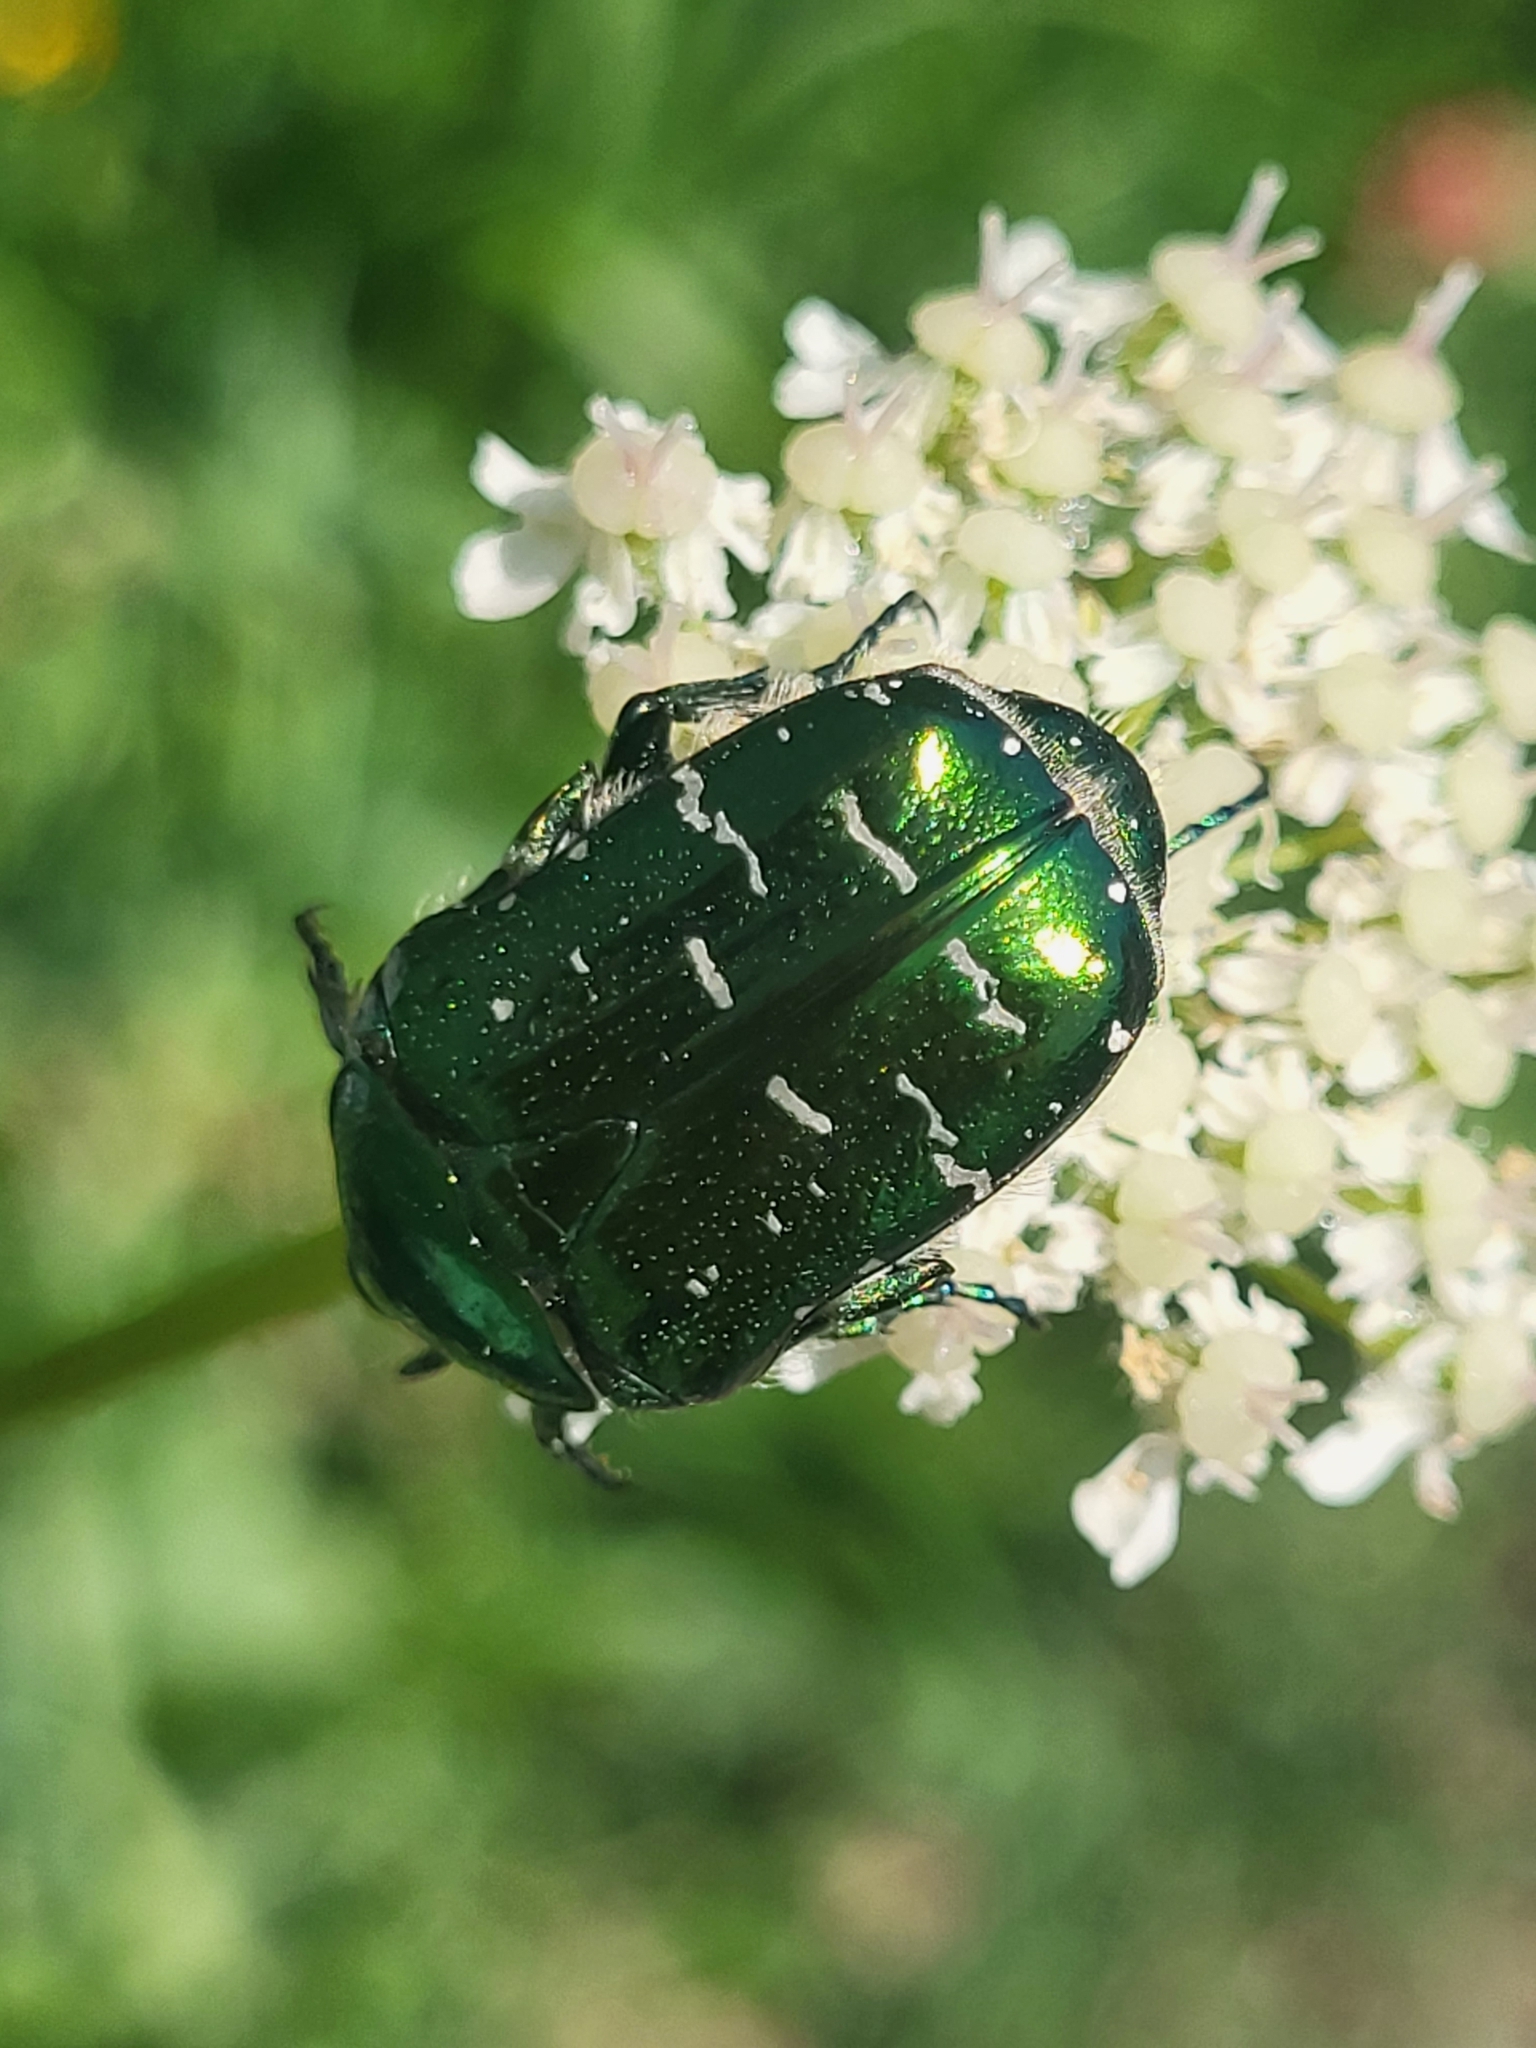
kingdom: Animalia
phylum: Arthropoda
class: Insecta
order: Coleoptera
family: Scarabaeidae
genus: Cetonia
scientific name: Cetonia aurata
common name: Rose chafer
